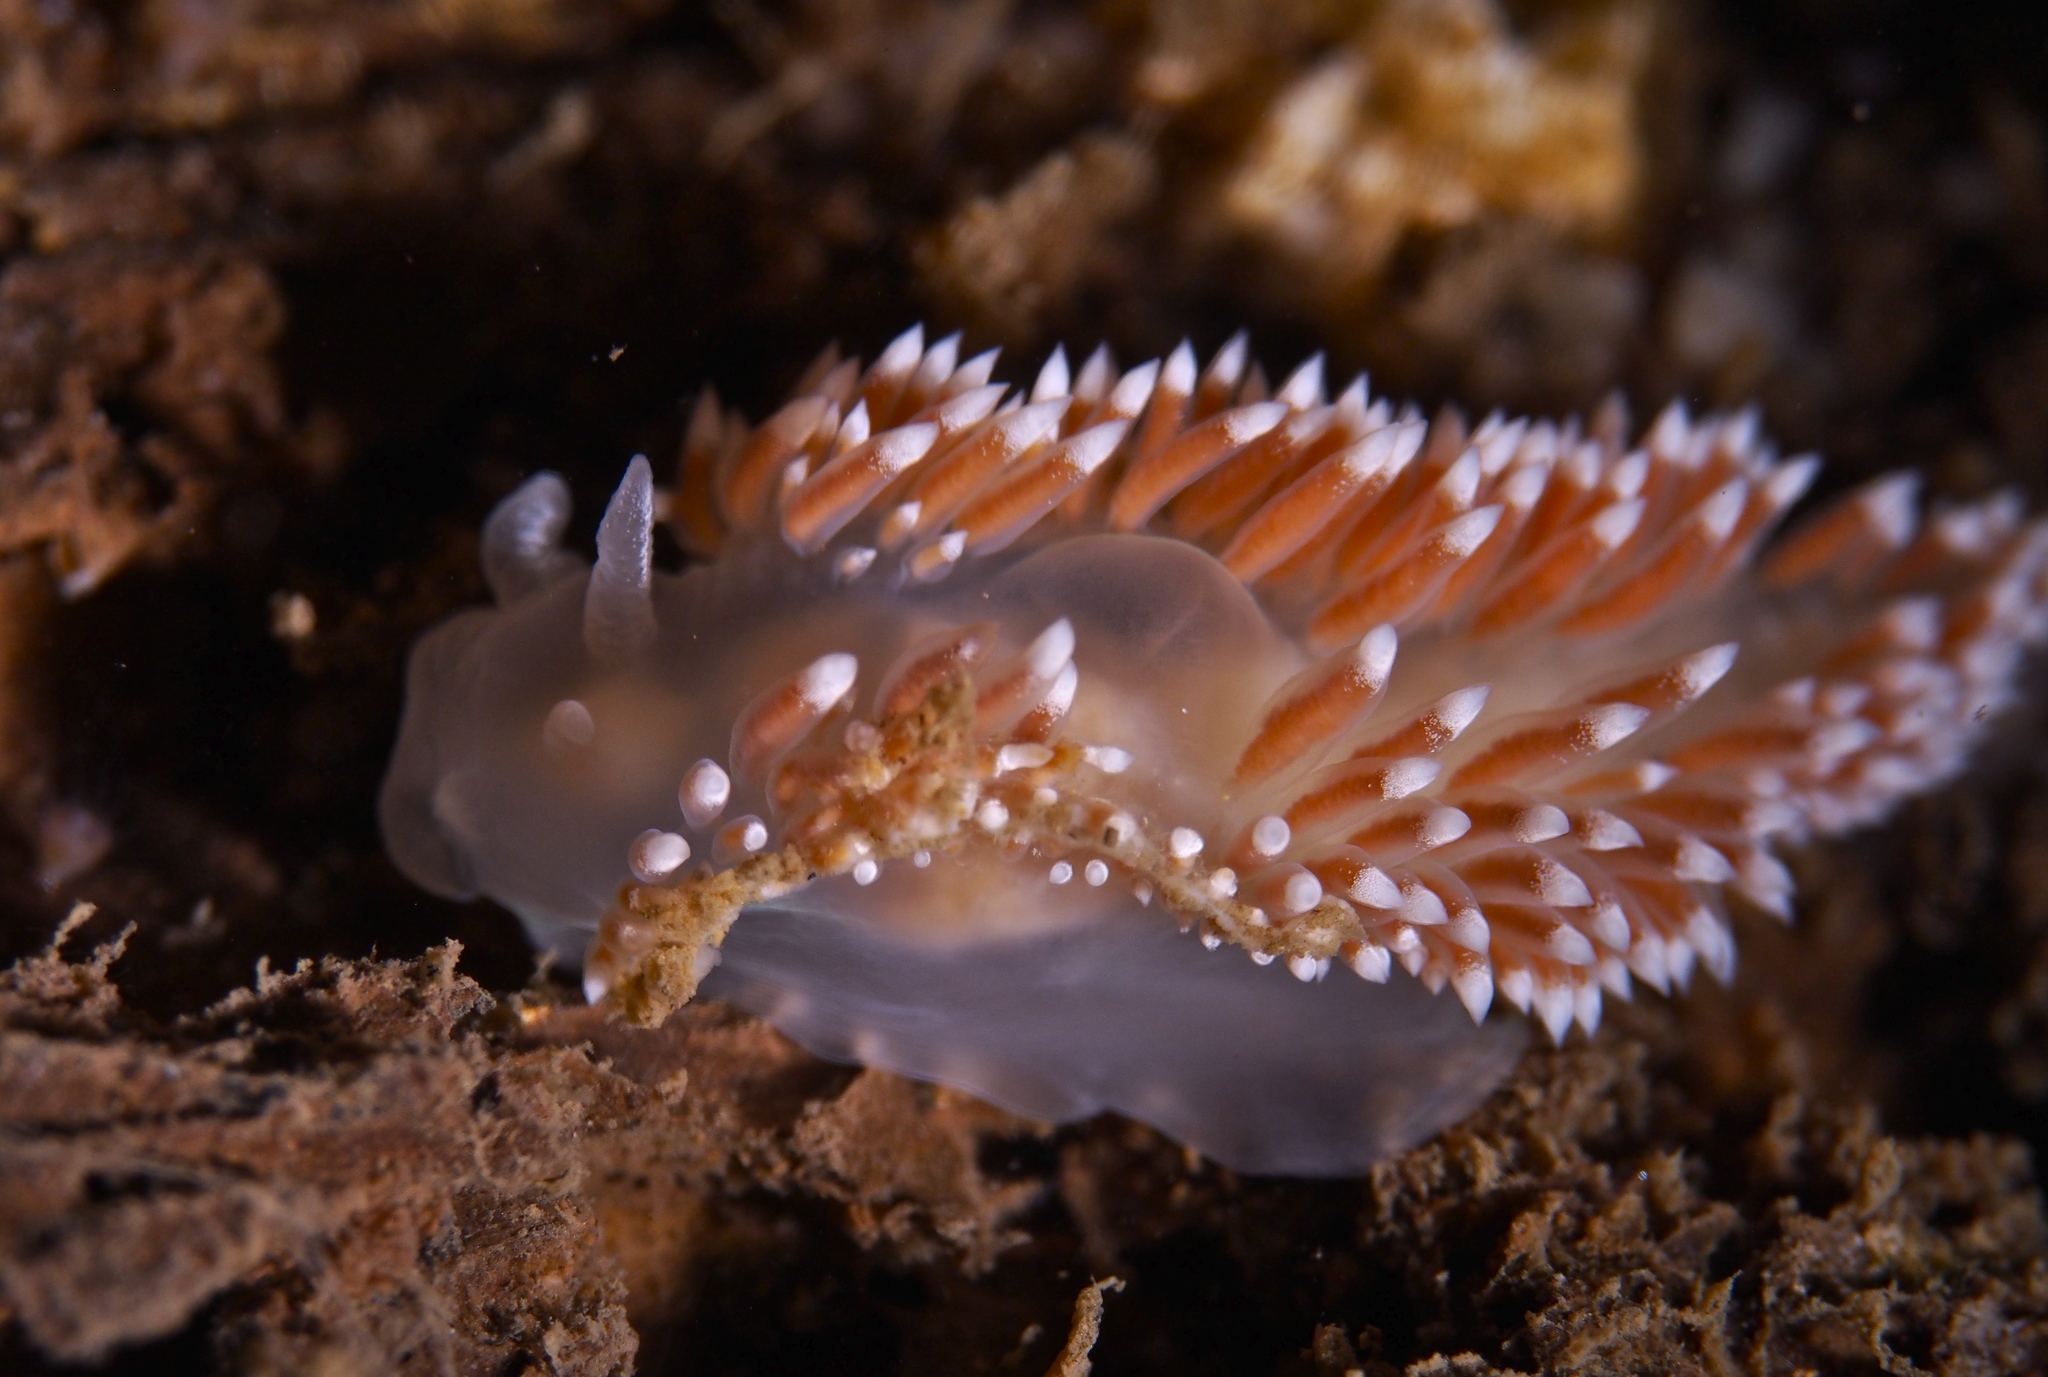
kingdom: Animalia
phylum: Mollusca
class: Gastropoda
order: Nudibranchia
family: Coryphellidae
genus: Coryphella
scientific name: Coryphella verrucosa
